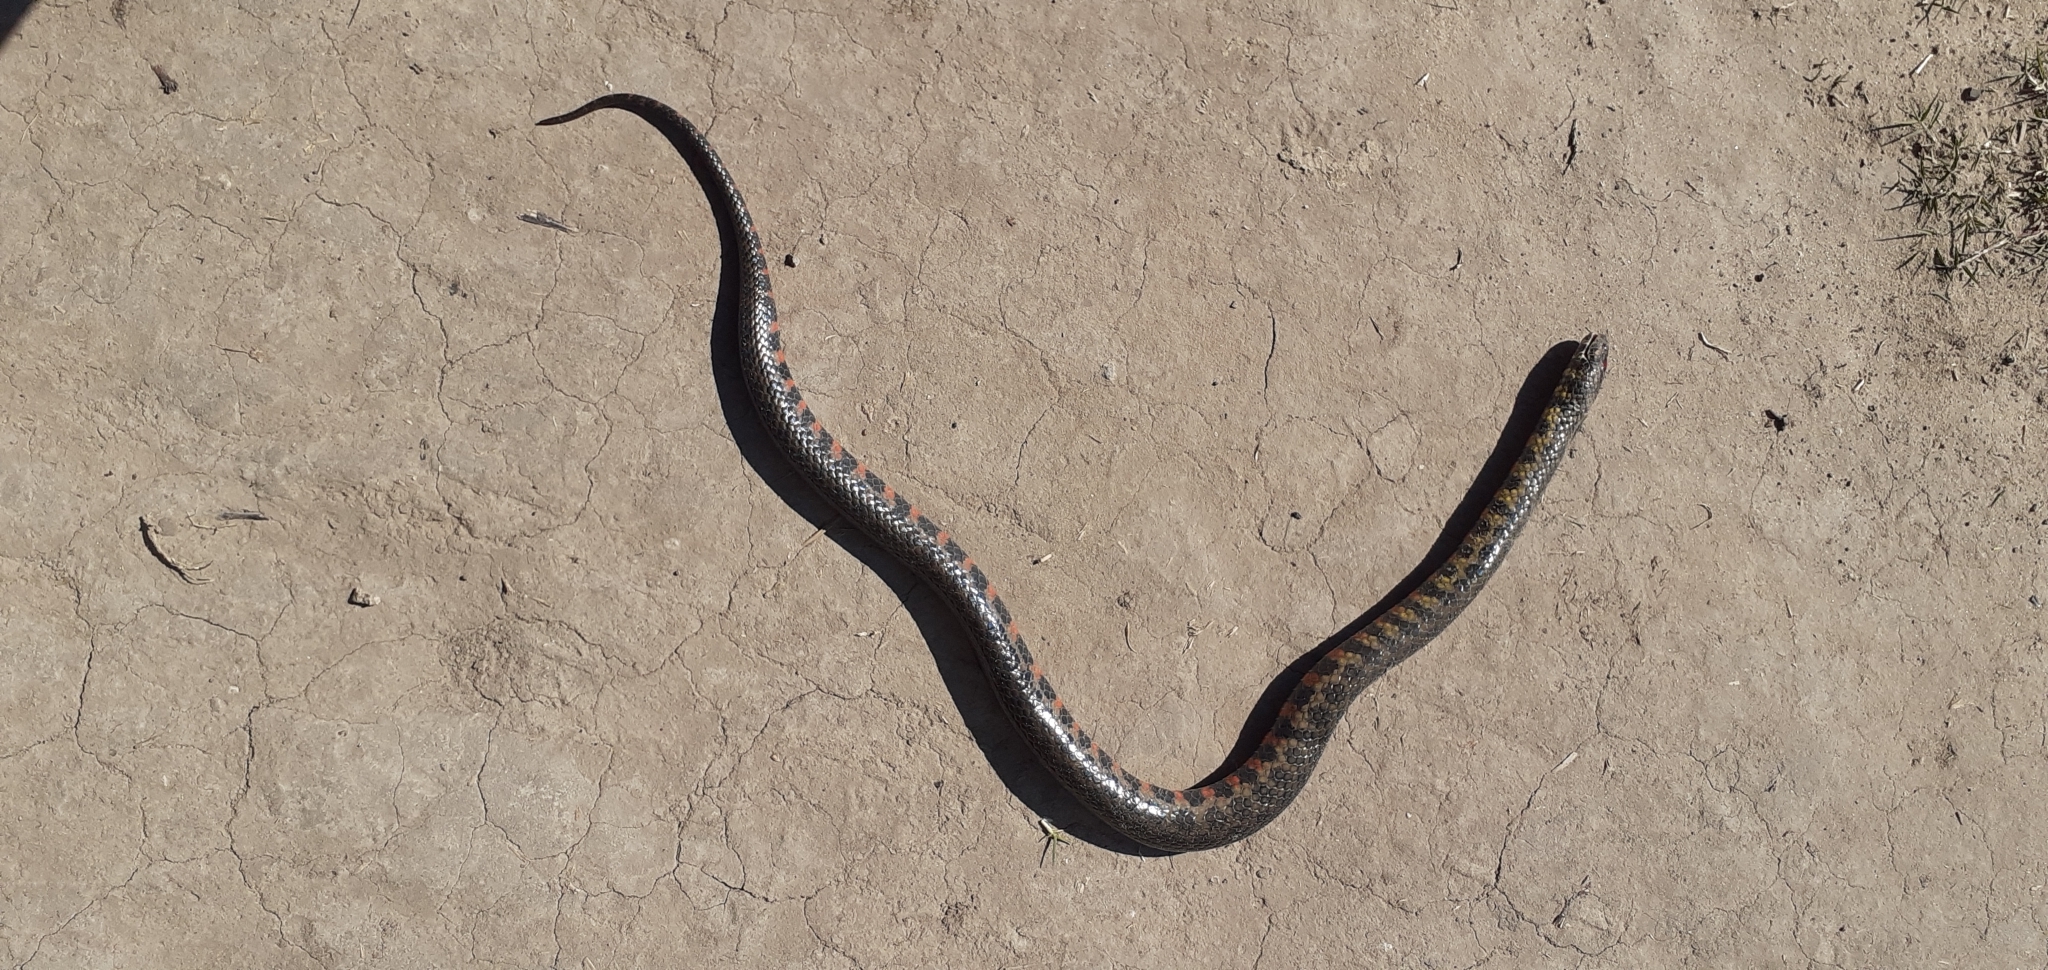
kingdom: Animalia
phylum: Chordata
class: Squamata
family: Colubridae
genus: Helicops
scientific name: Helicops leopardinus
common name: Leopard keelback
